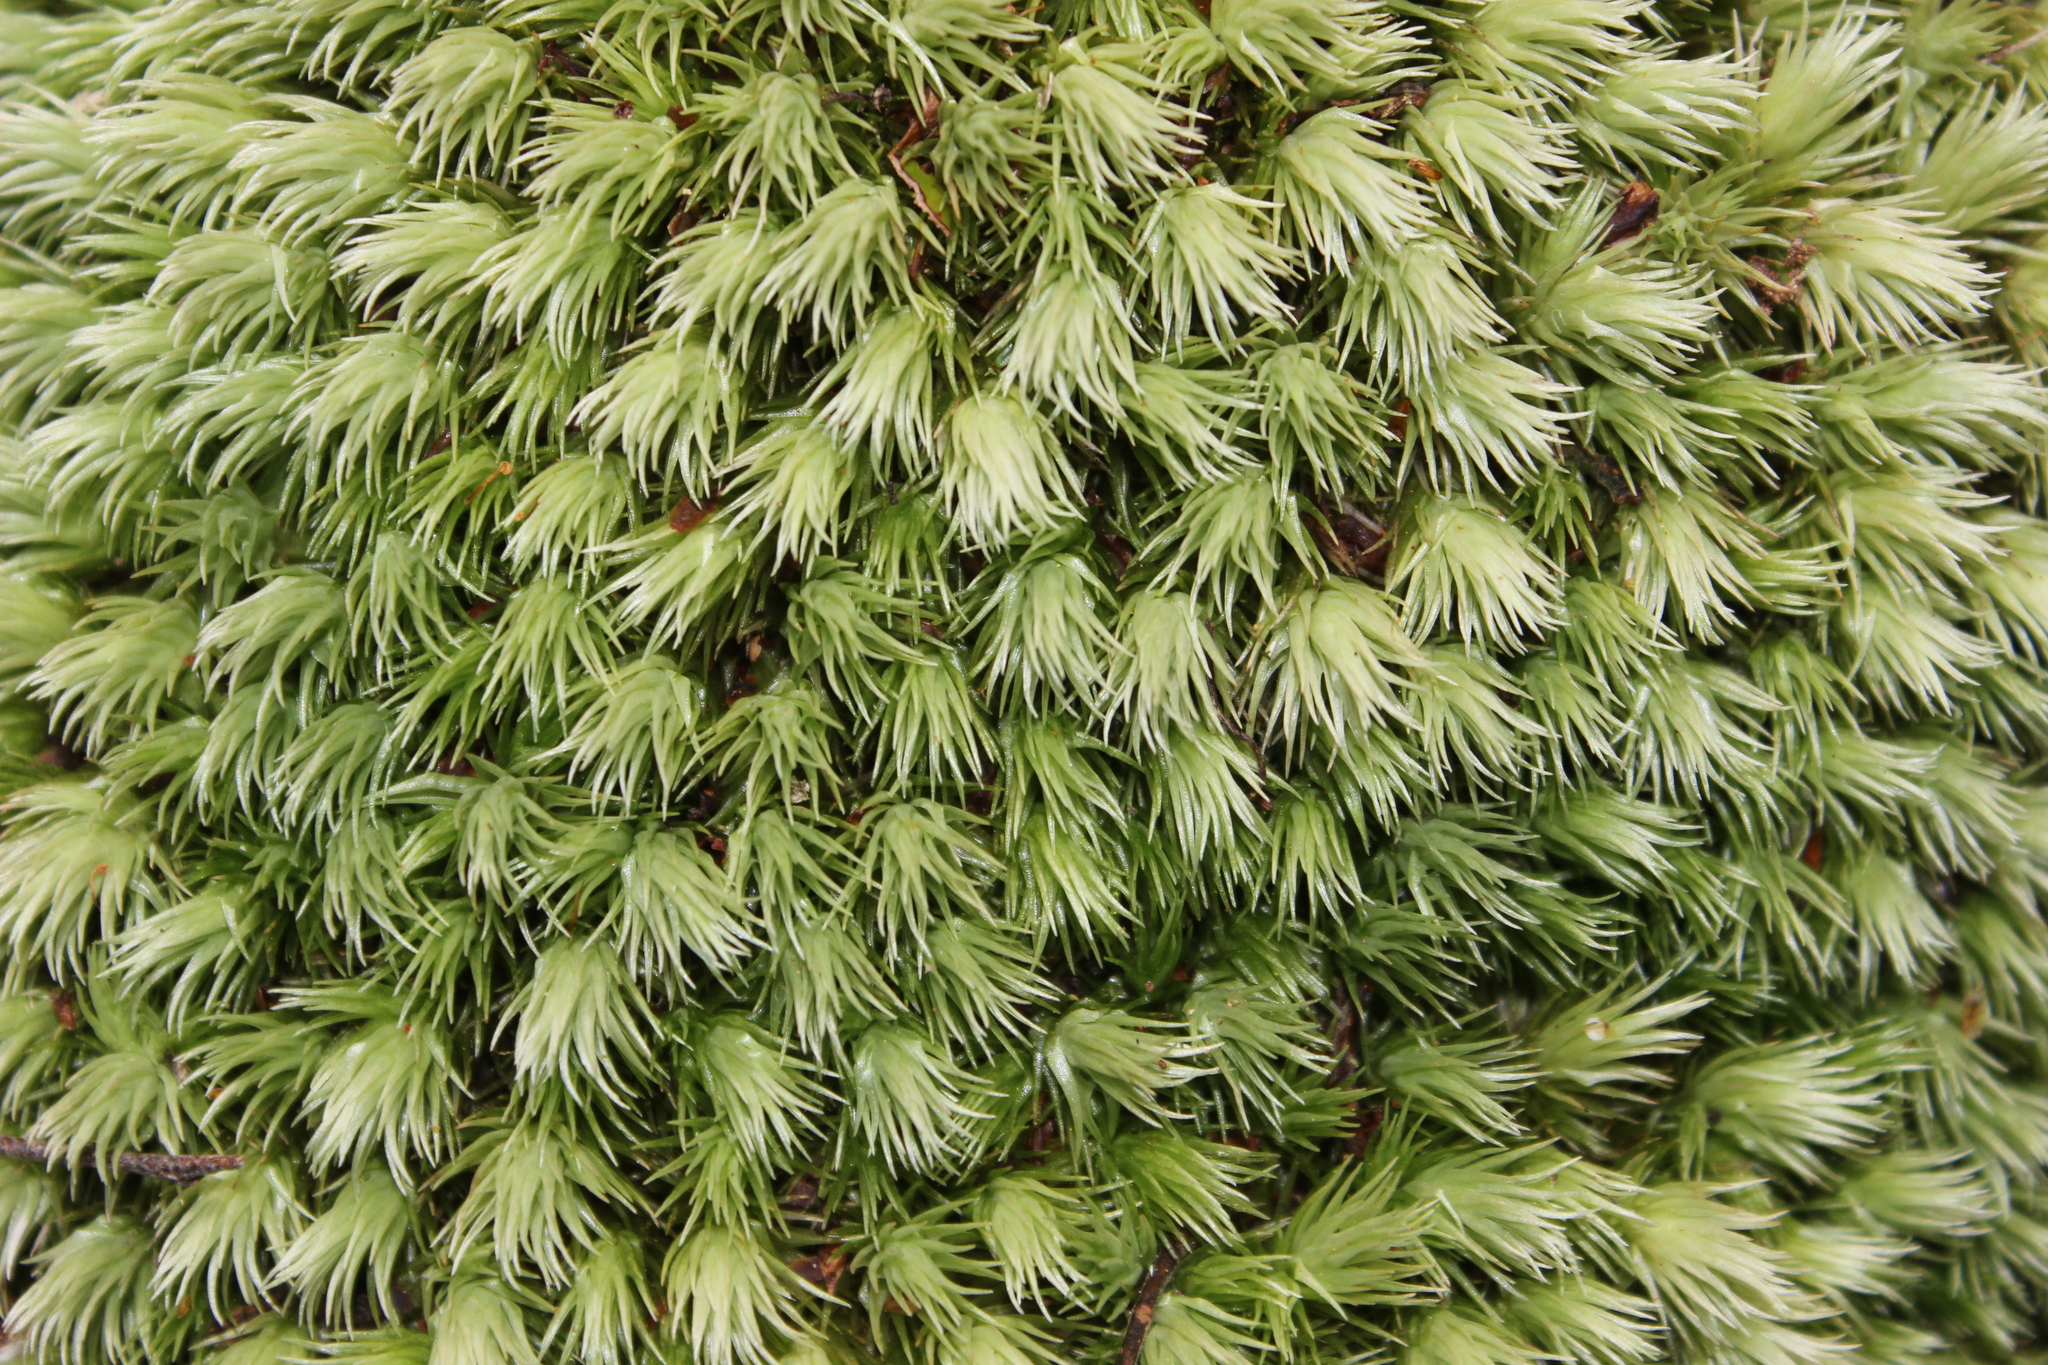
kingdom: Plantae
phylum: Bryophyta
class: Bryopsida
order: Dicranales
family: Leucobryaceae
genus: Leucobryum
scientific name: Leucobryum javense
